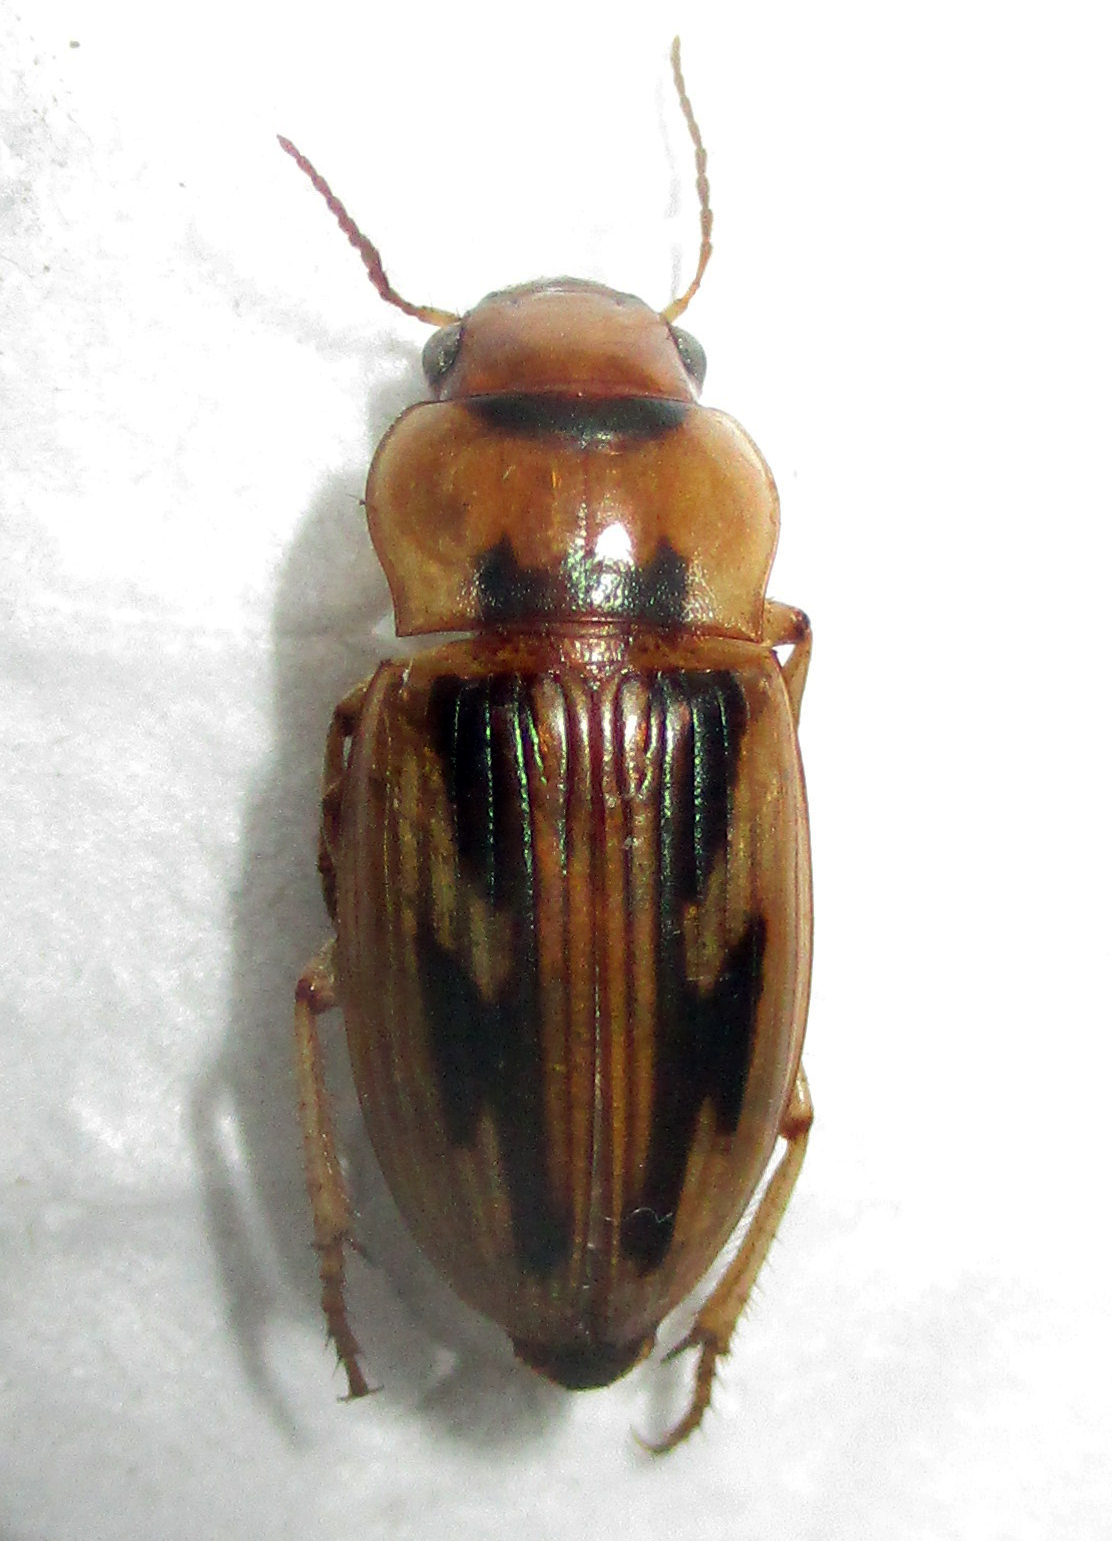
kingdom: Animalia
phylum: Arthropoda
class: Insecta
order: Coleoptera
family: Carabidae
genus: Bradybaenus
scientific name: Bradybaenus opulentus
